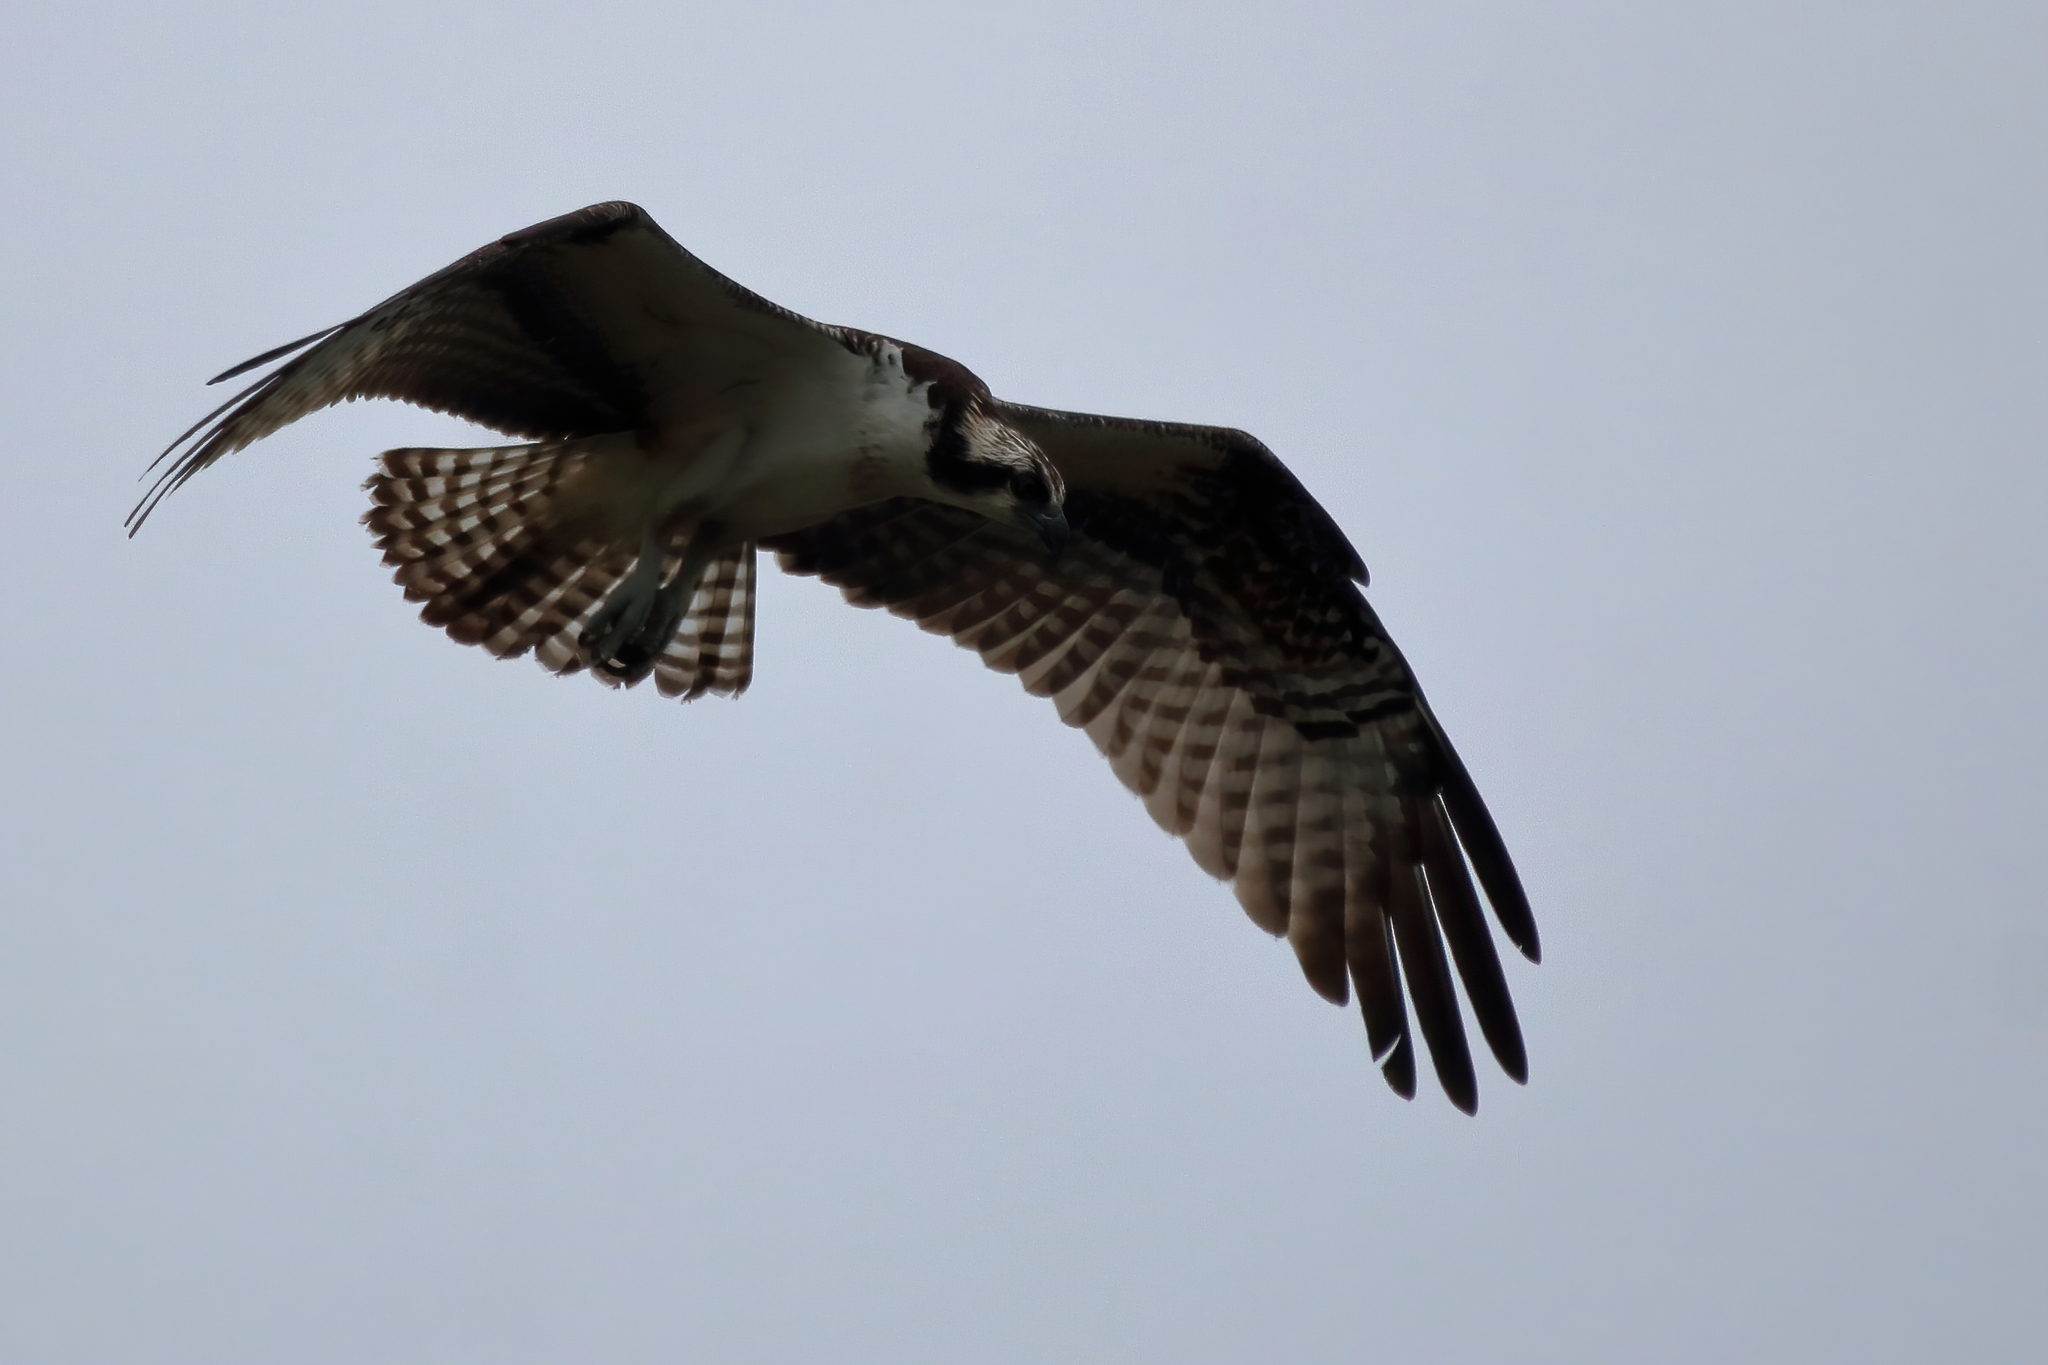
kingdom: Animalia
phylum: Chordata
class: Aves
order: Accipitriformes
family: Pandionidae
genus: Pandion
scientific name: Pandion haliaetus
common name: Osprey
